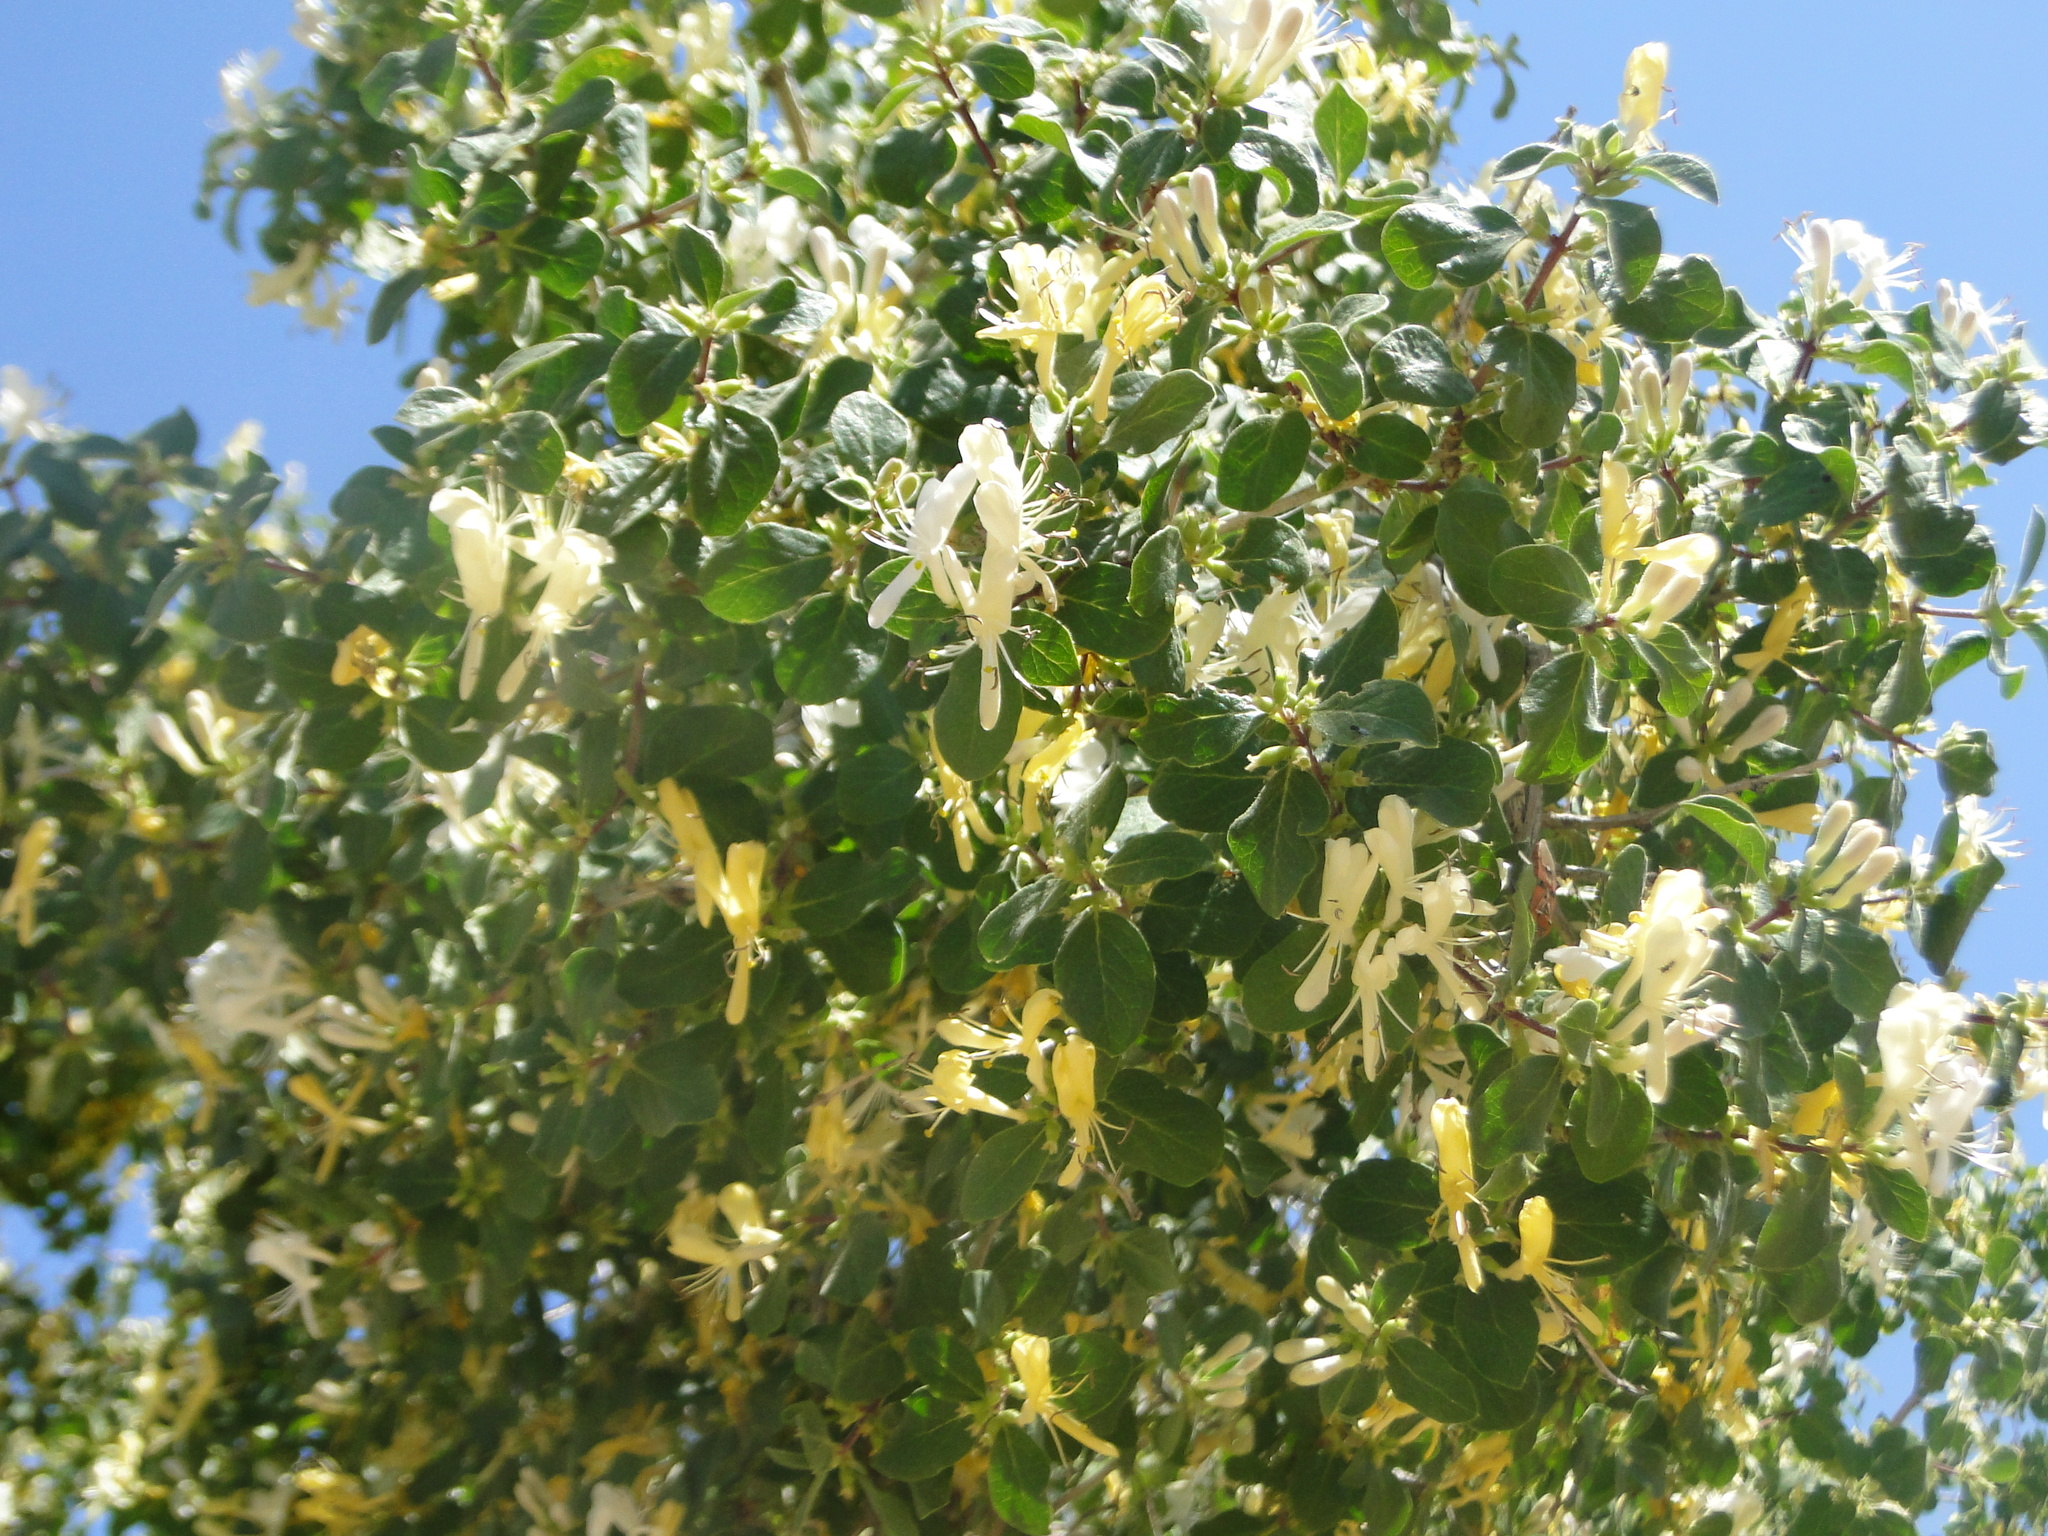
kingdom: Plantae
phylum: Tracheophyta
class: Magnoliopsida
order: Dipsacales
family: Caprifoliaceae
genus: Lonicera
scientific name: Lonicera nummulariifolia
